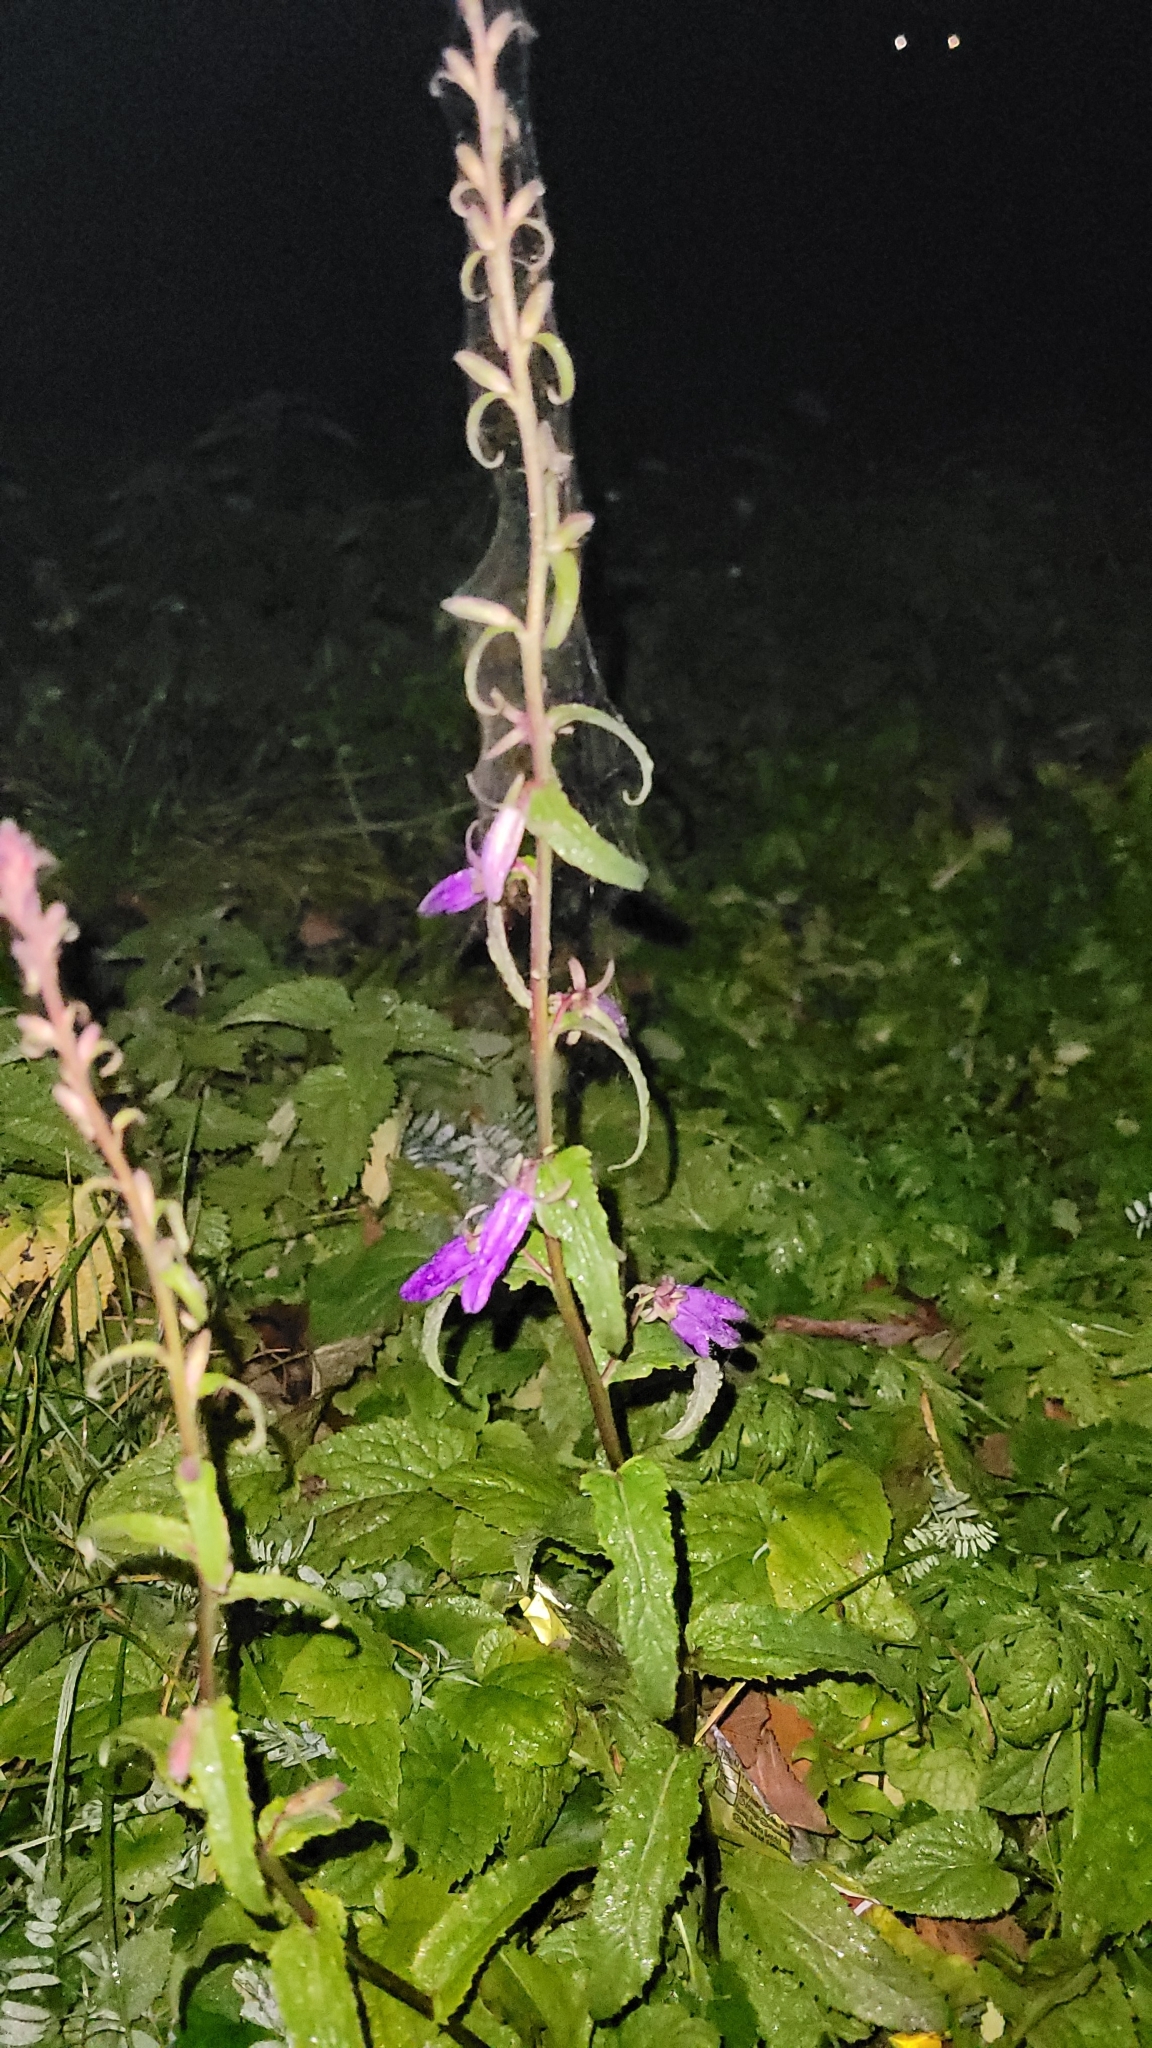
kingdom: Plantae
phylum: Tracheophyta
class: Magnoliopsida
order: Asterales
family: Campanulaceae
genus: Campanula
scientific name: Campanula rapunculoides
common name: Creeping bellflower
